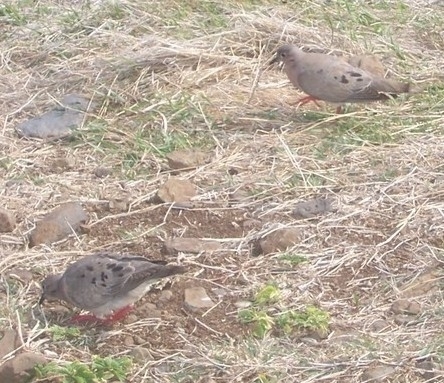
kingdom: Animalia
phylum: Chordata
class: Aves
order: Columbiformes
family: Columbidae
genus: Zenaida
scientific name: Zenaida auriculata
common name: Eared dove
